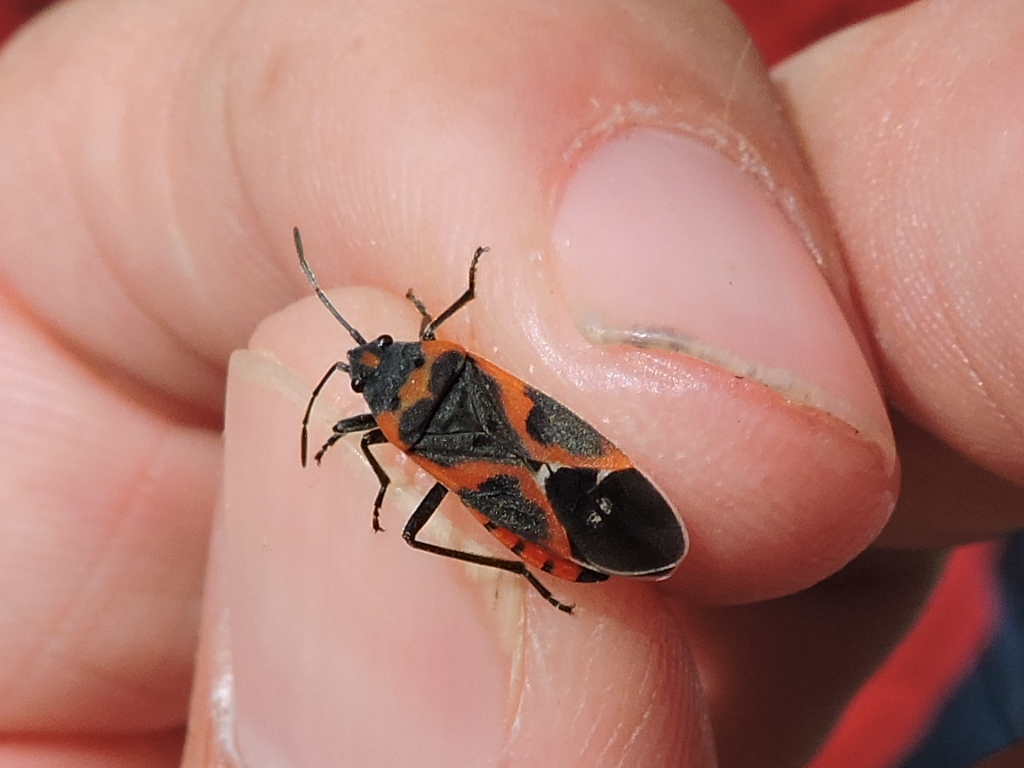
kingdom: Animalia
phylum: Arthropoda
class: Insecta
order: Hemiptera
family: Lygaeidae
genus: Lygaeus
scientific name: Lygaeus kalmii
